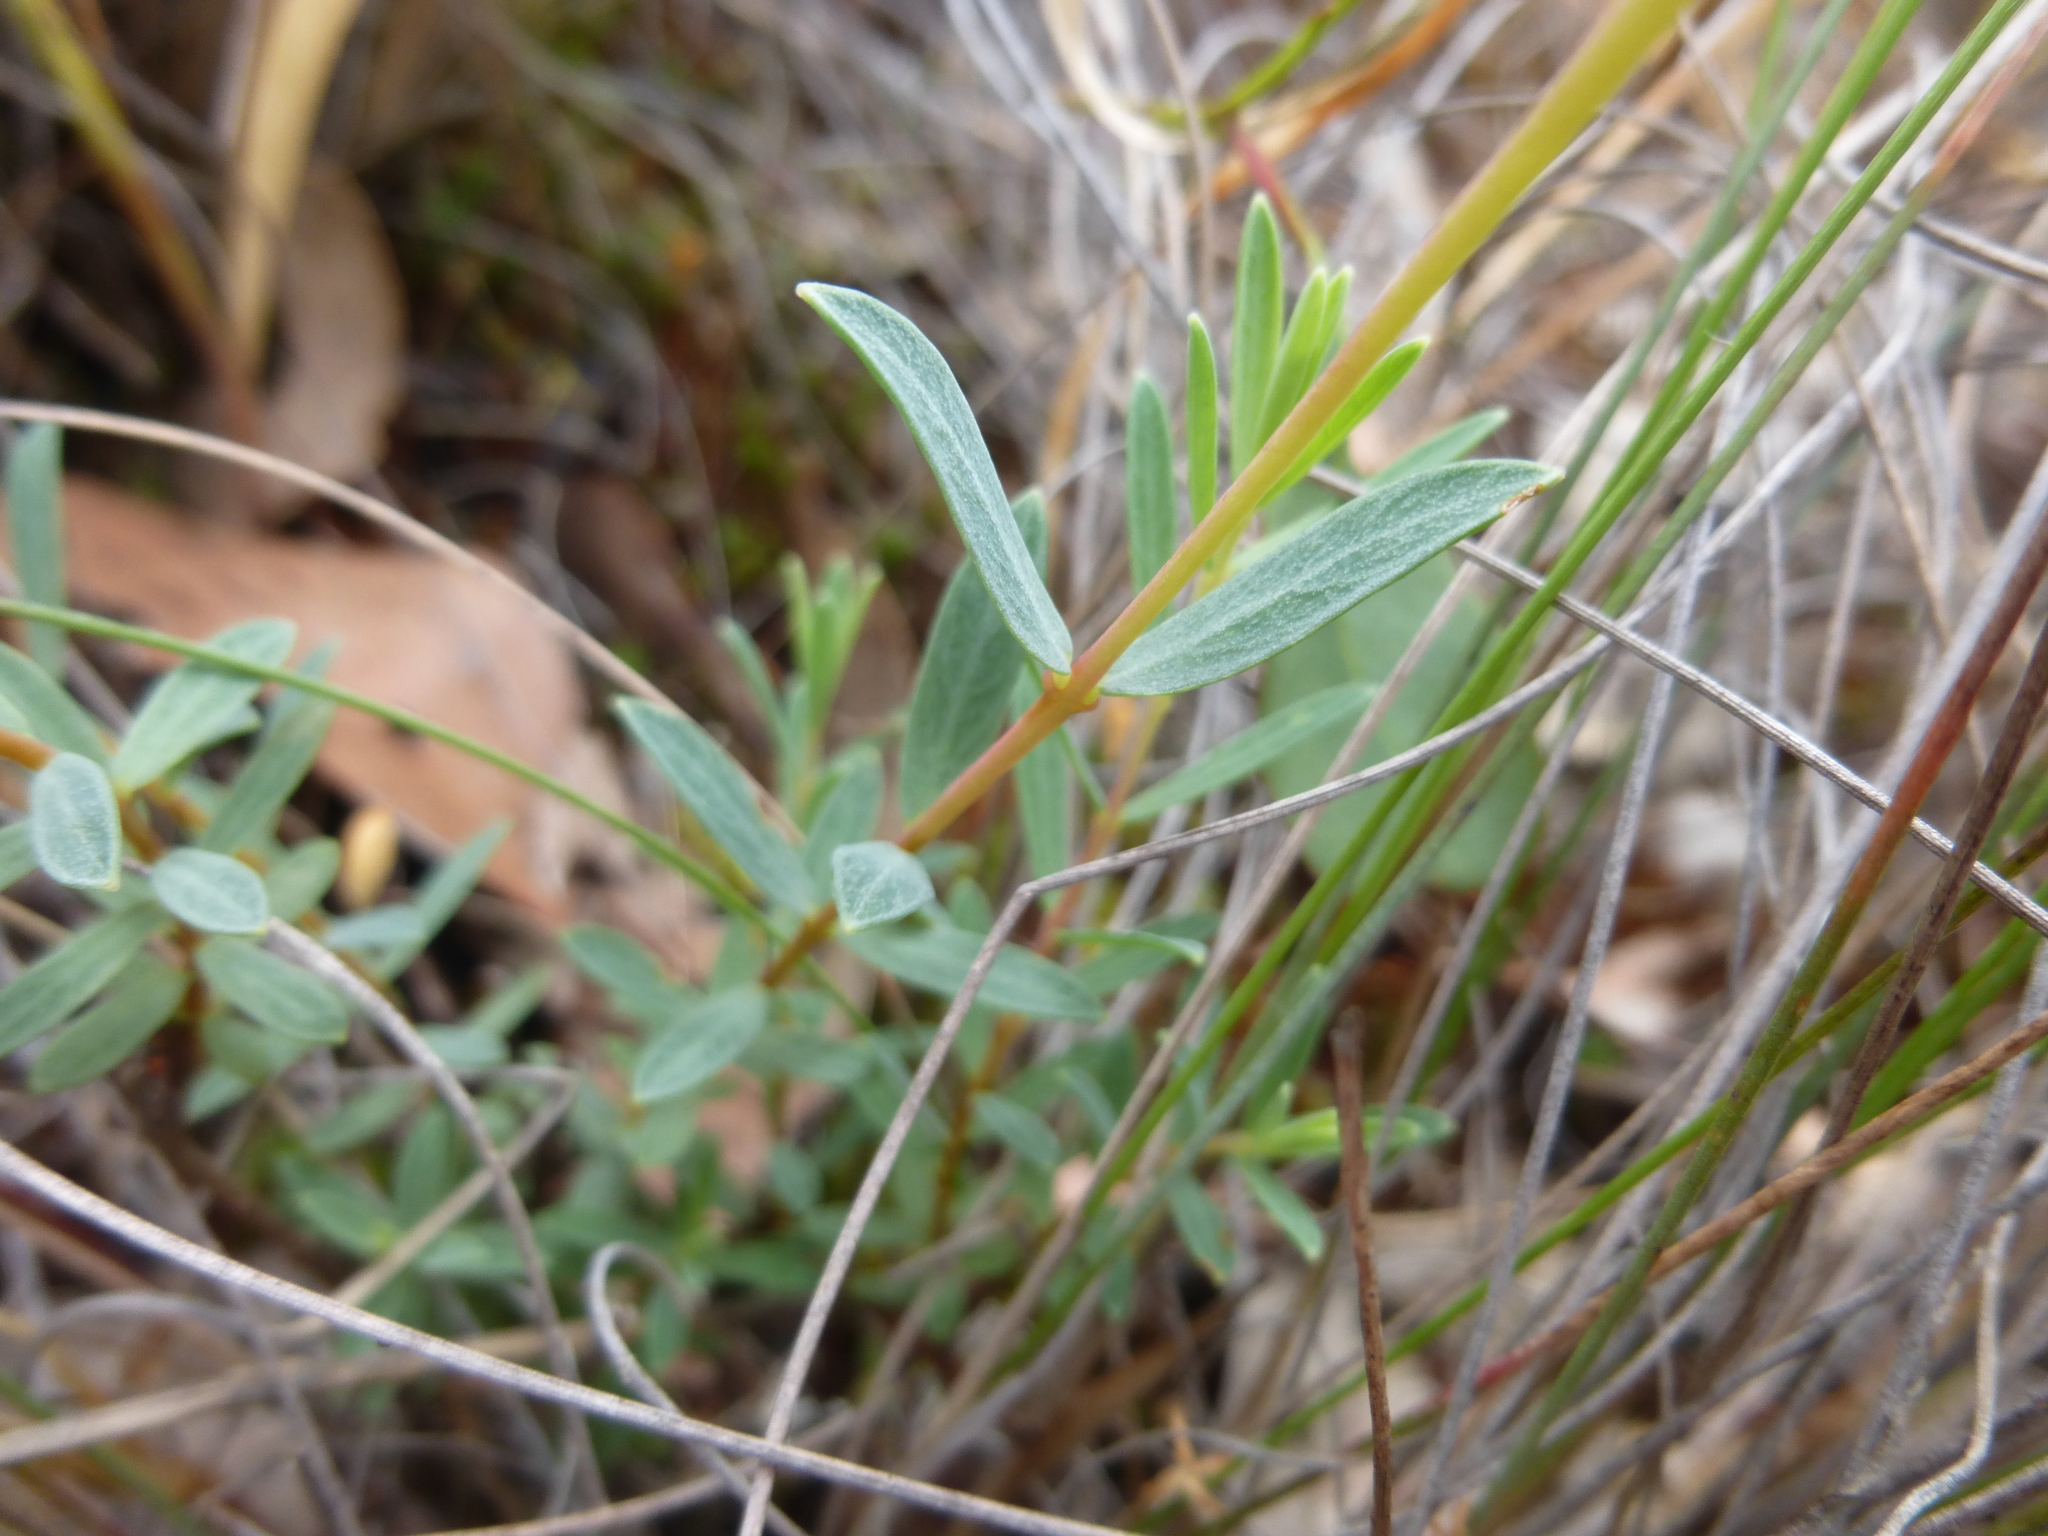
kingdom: Plantae
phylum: Tracheophyta
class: Magnoliopsida
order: Malvales
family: Thymelaeaceae
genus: Pimelea
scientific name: Pimelea linifolia
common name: Queen-of-the-bush
